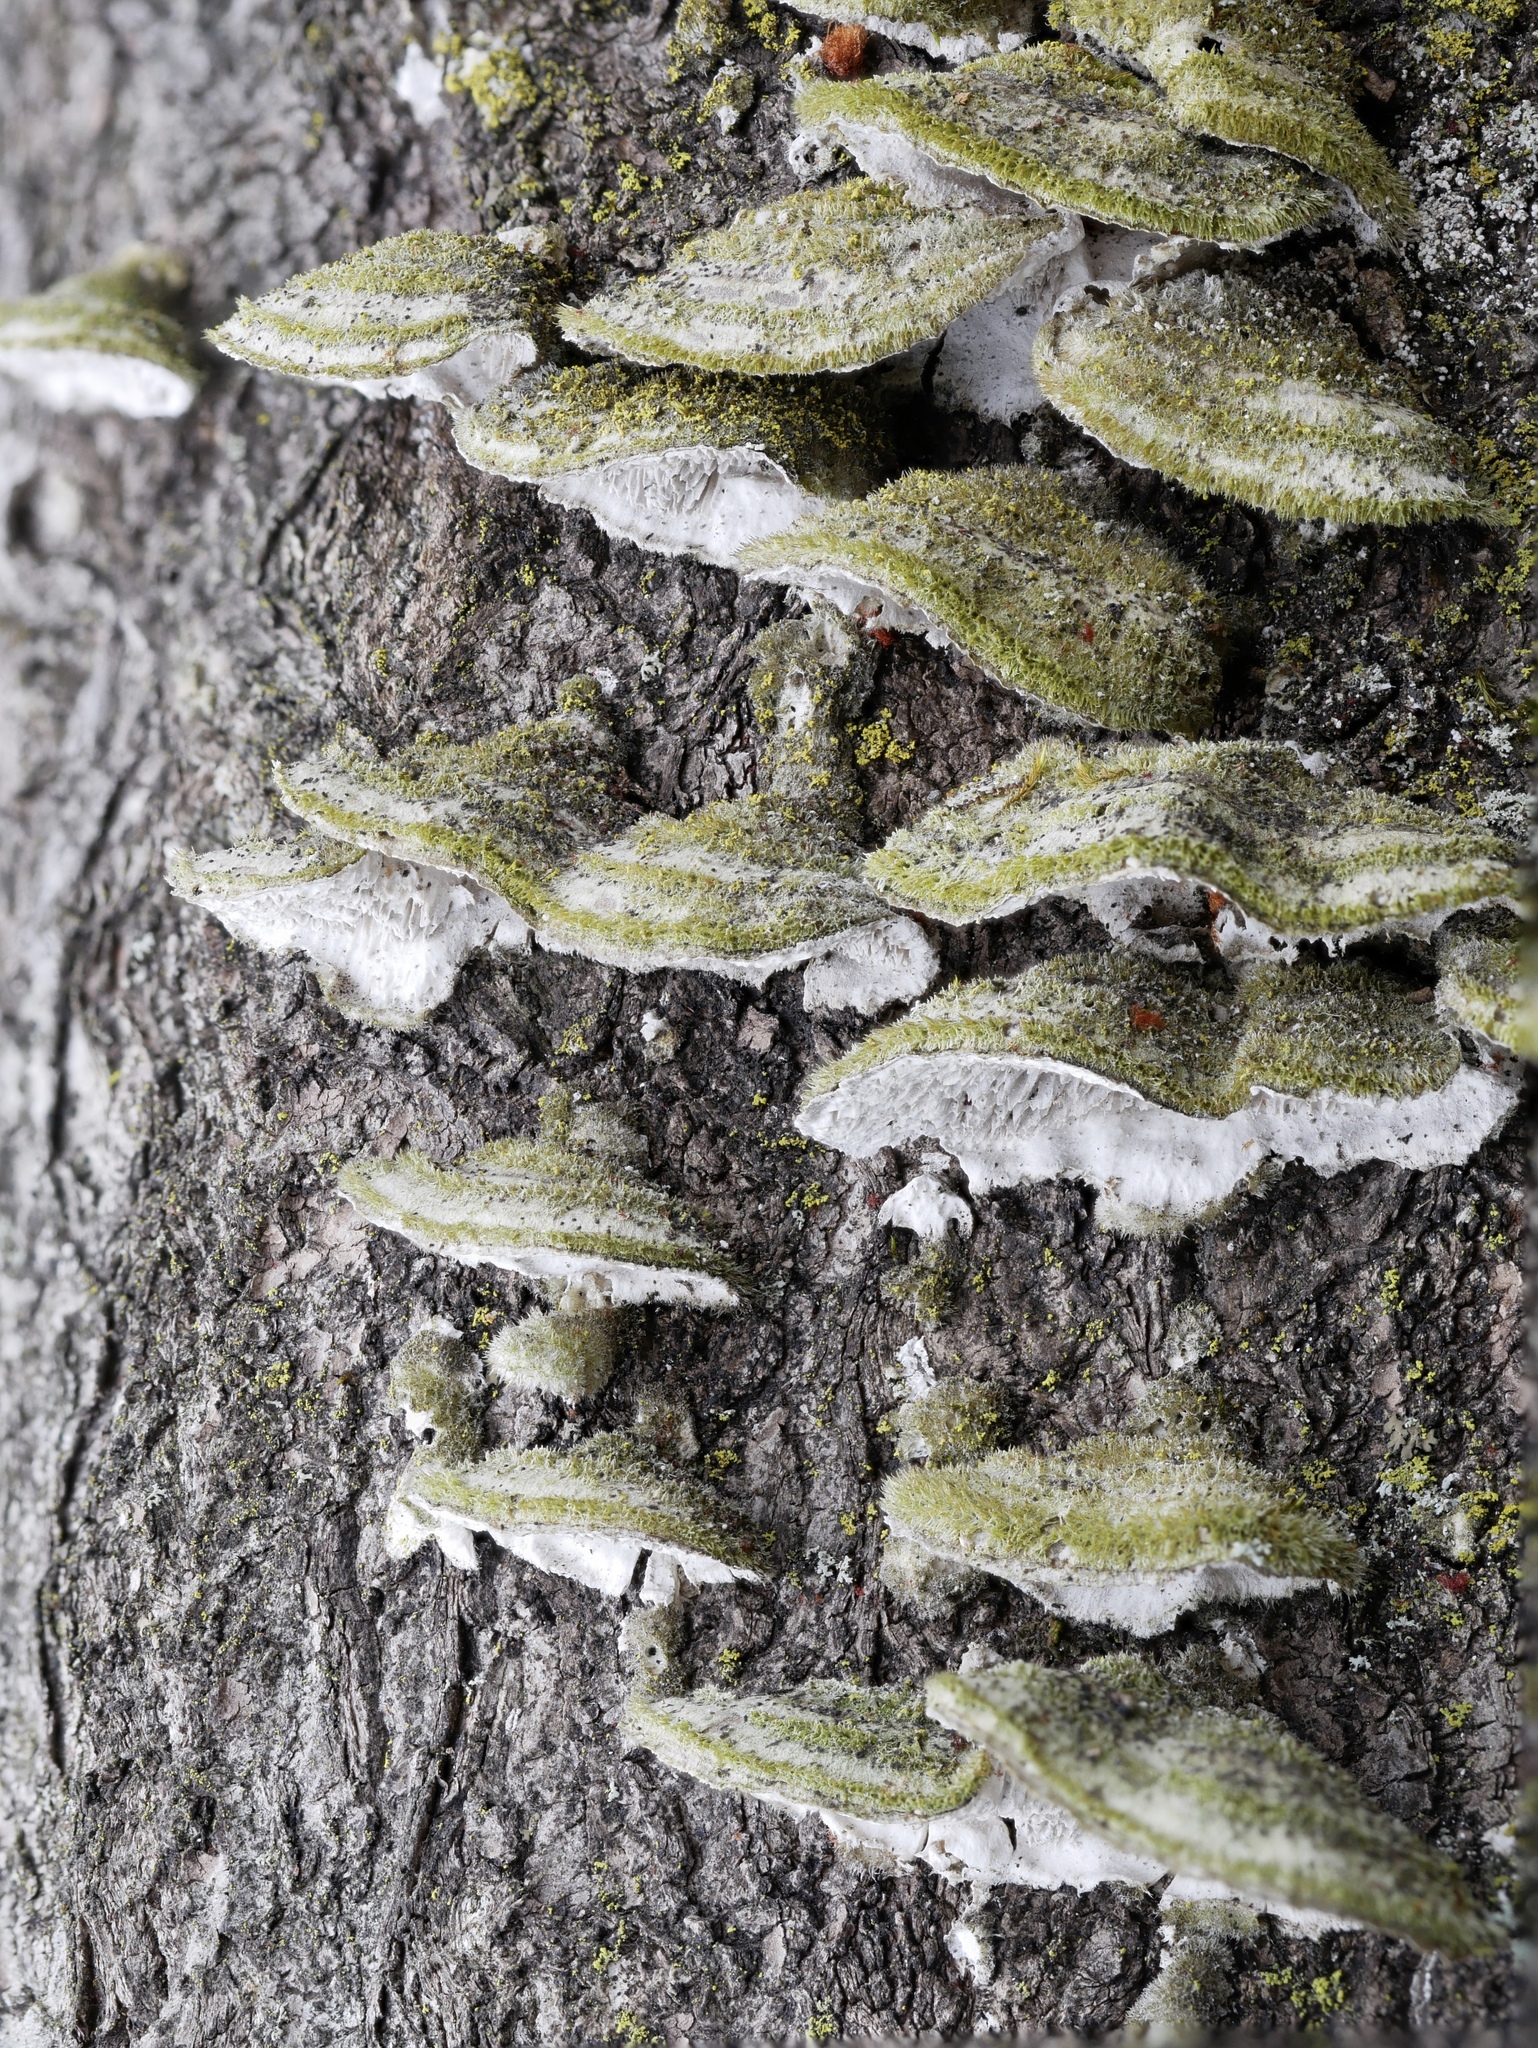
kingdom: Fungi
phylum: Basidiomycota
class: Agaricomycetes
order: Polyporales
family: Cerrenaceae
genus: Cerrena
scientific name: Cerrena unicolor
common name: Mossy maze polypore
